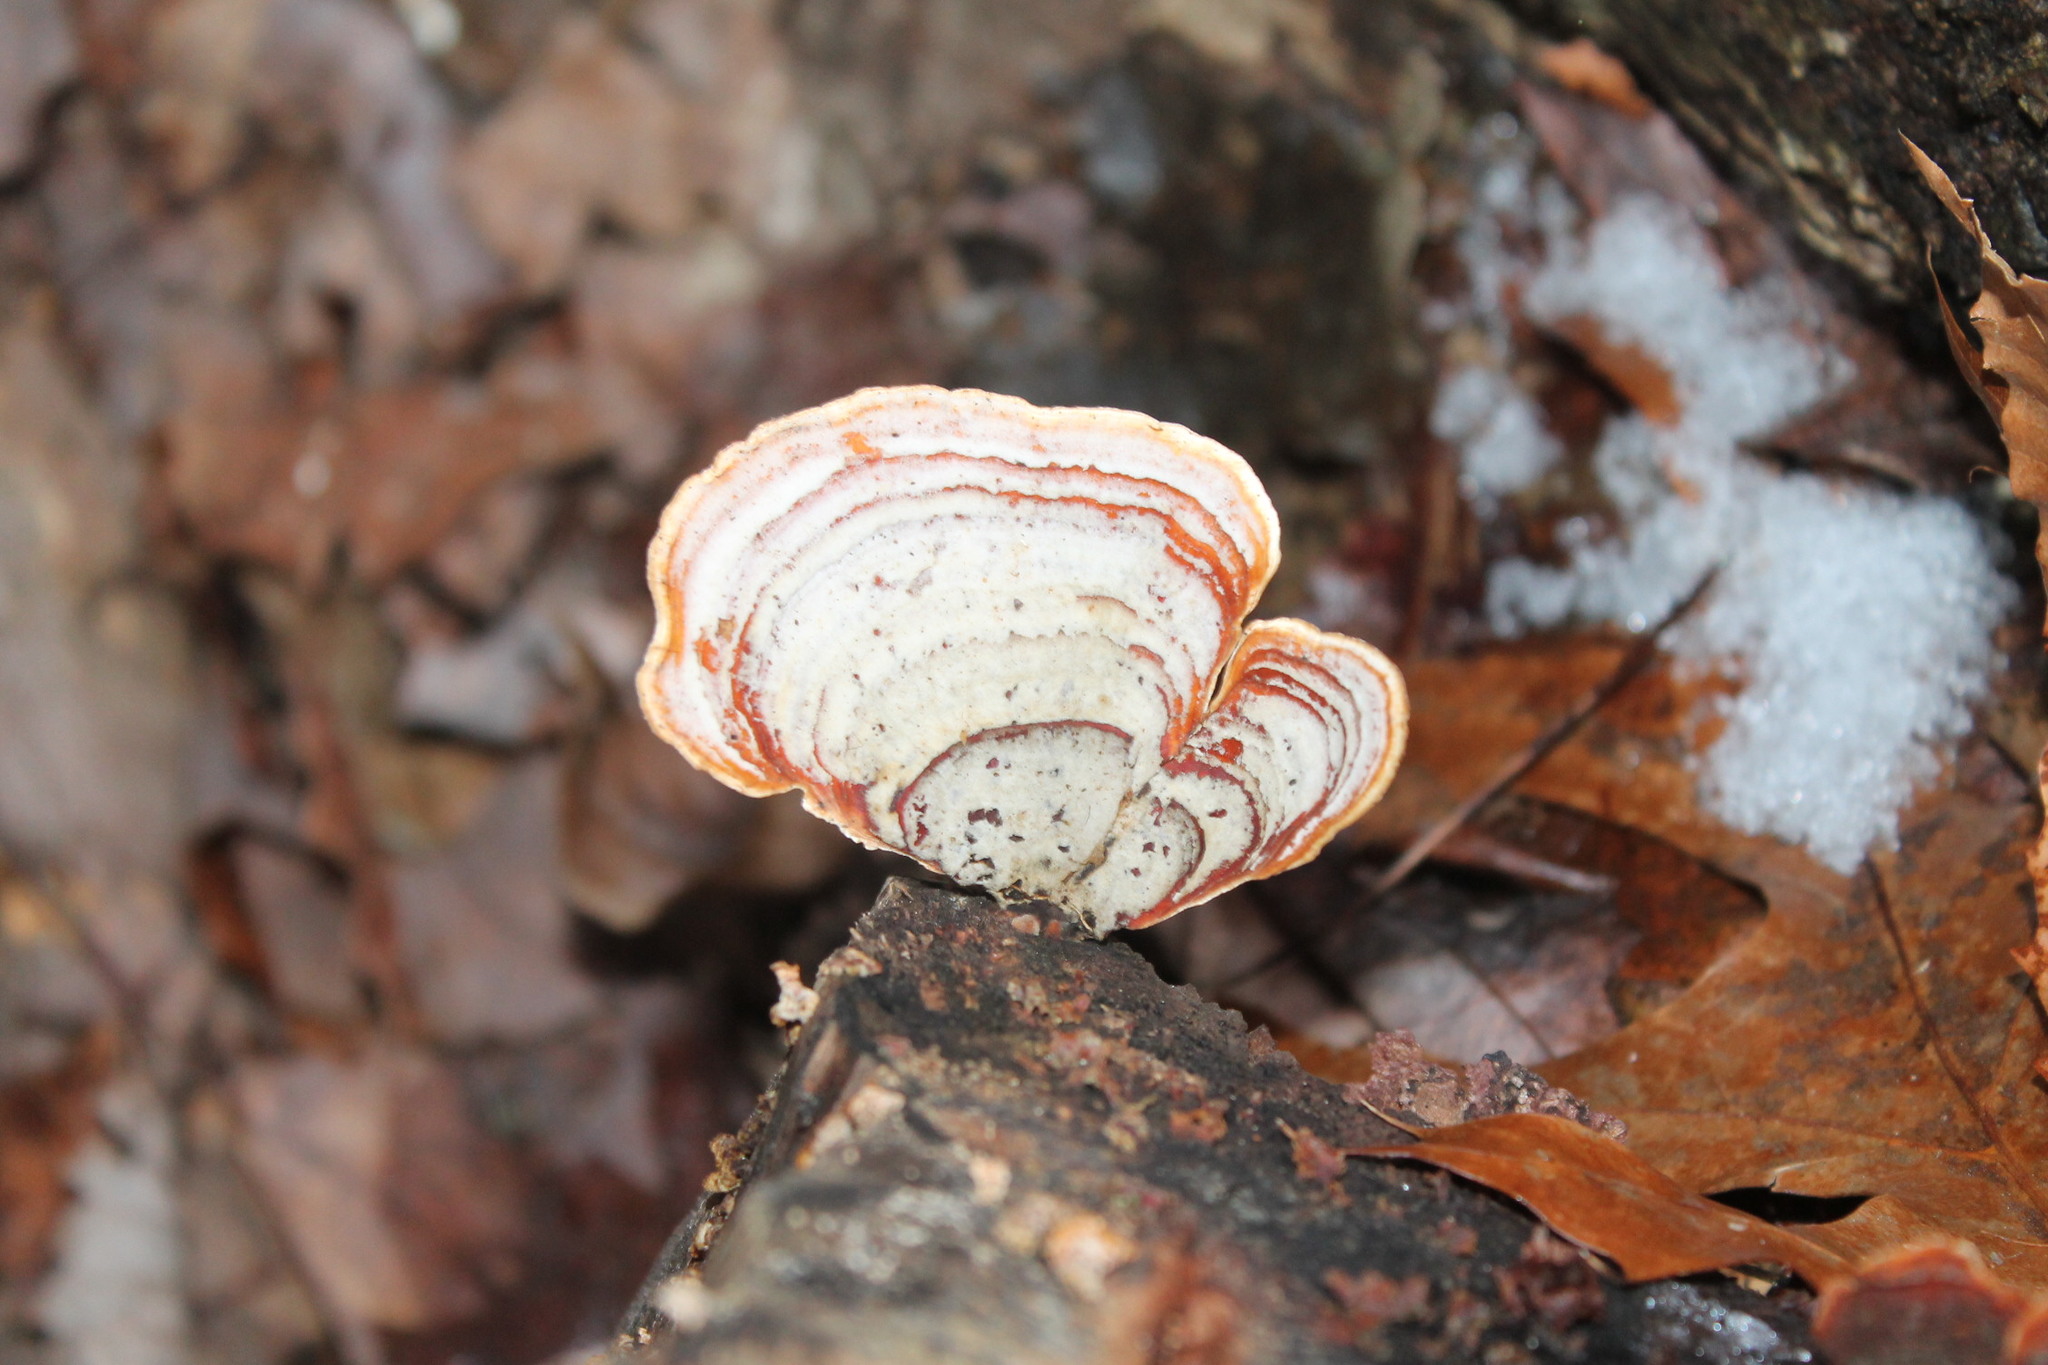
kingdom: Fungi
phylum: Basidiomycota
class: Agaricomycetes
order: Russulales
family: Stereaceae
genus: Stereum
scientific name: Stereum lobatum
